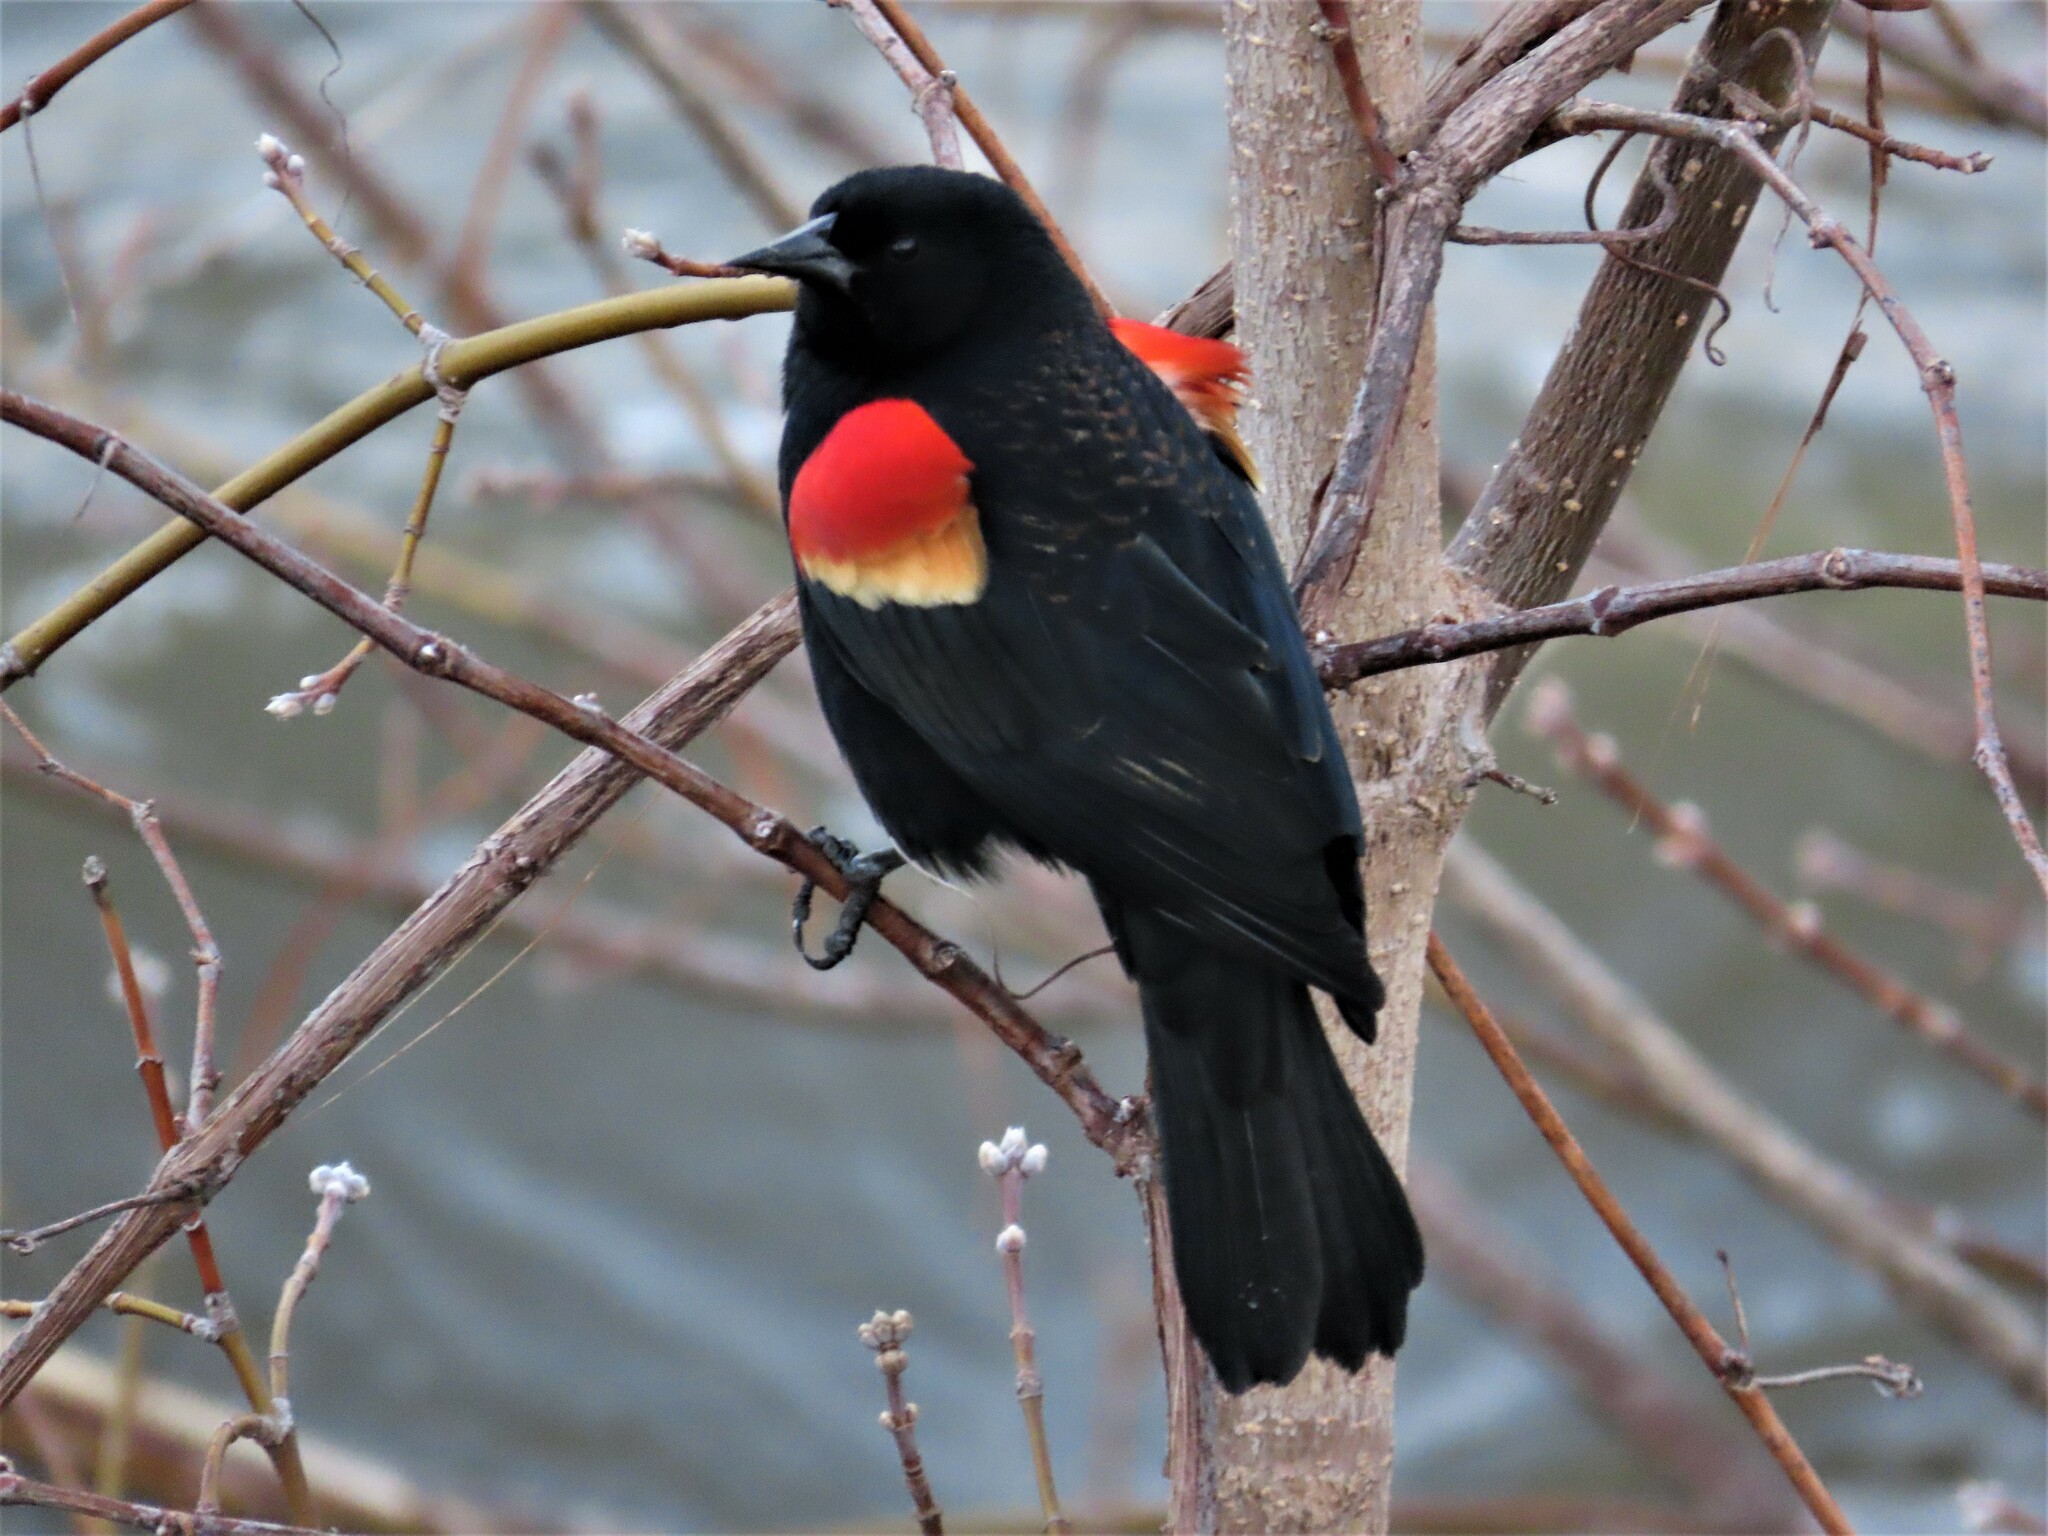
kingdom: Animalia
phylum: Chordata
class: Aves
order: Passeriformes
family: Icteridae
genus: Agelaius
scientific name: Agelaius phoeniceus
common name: Red-winged blackbird
